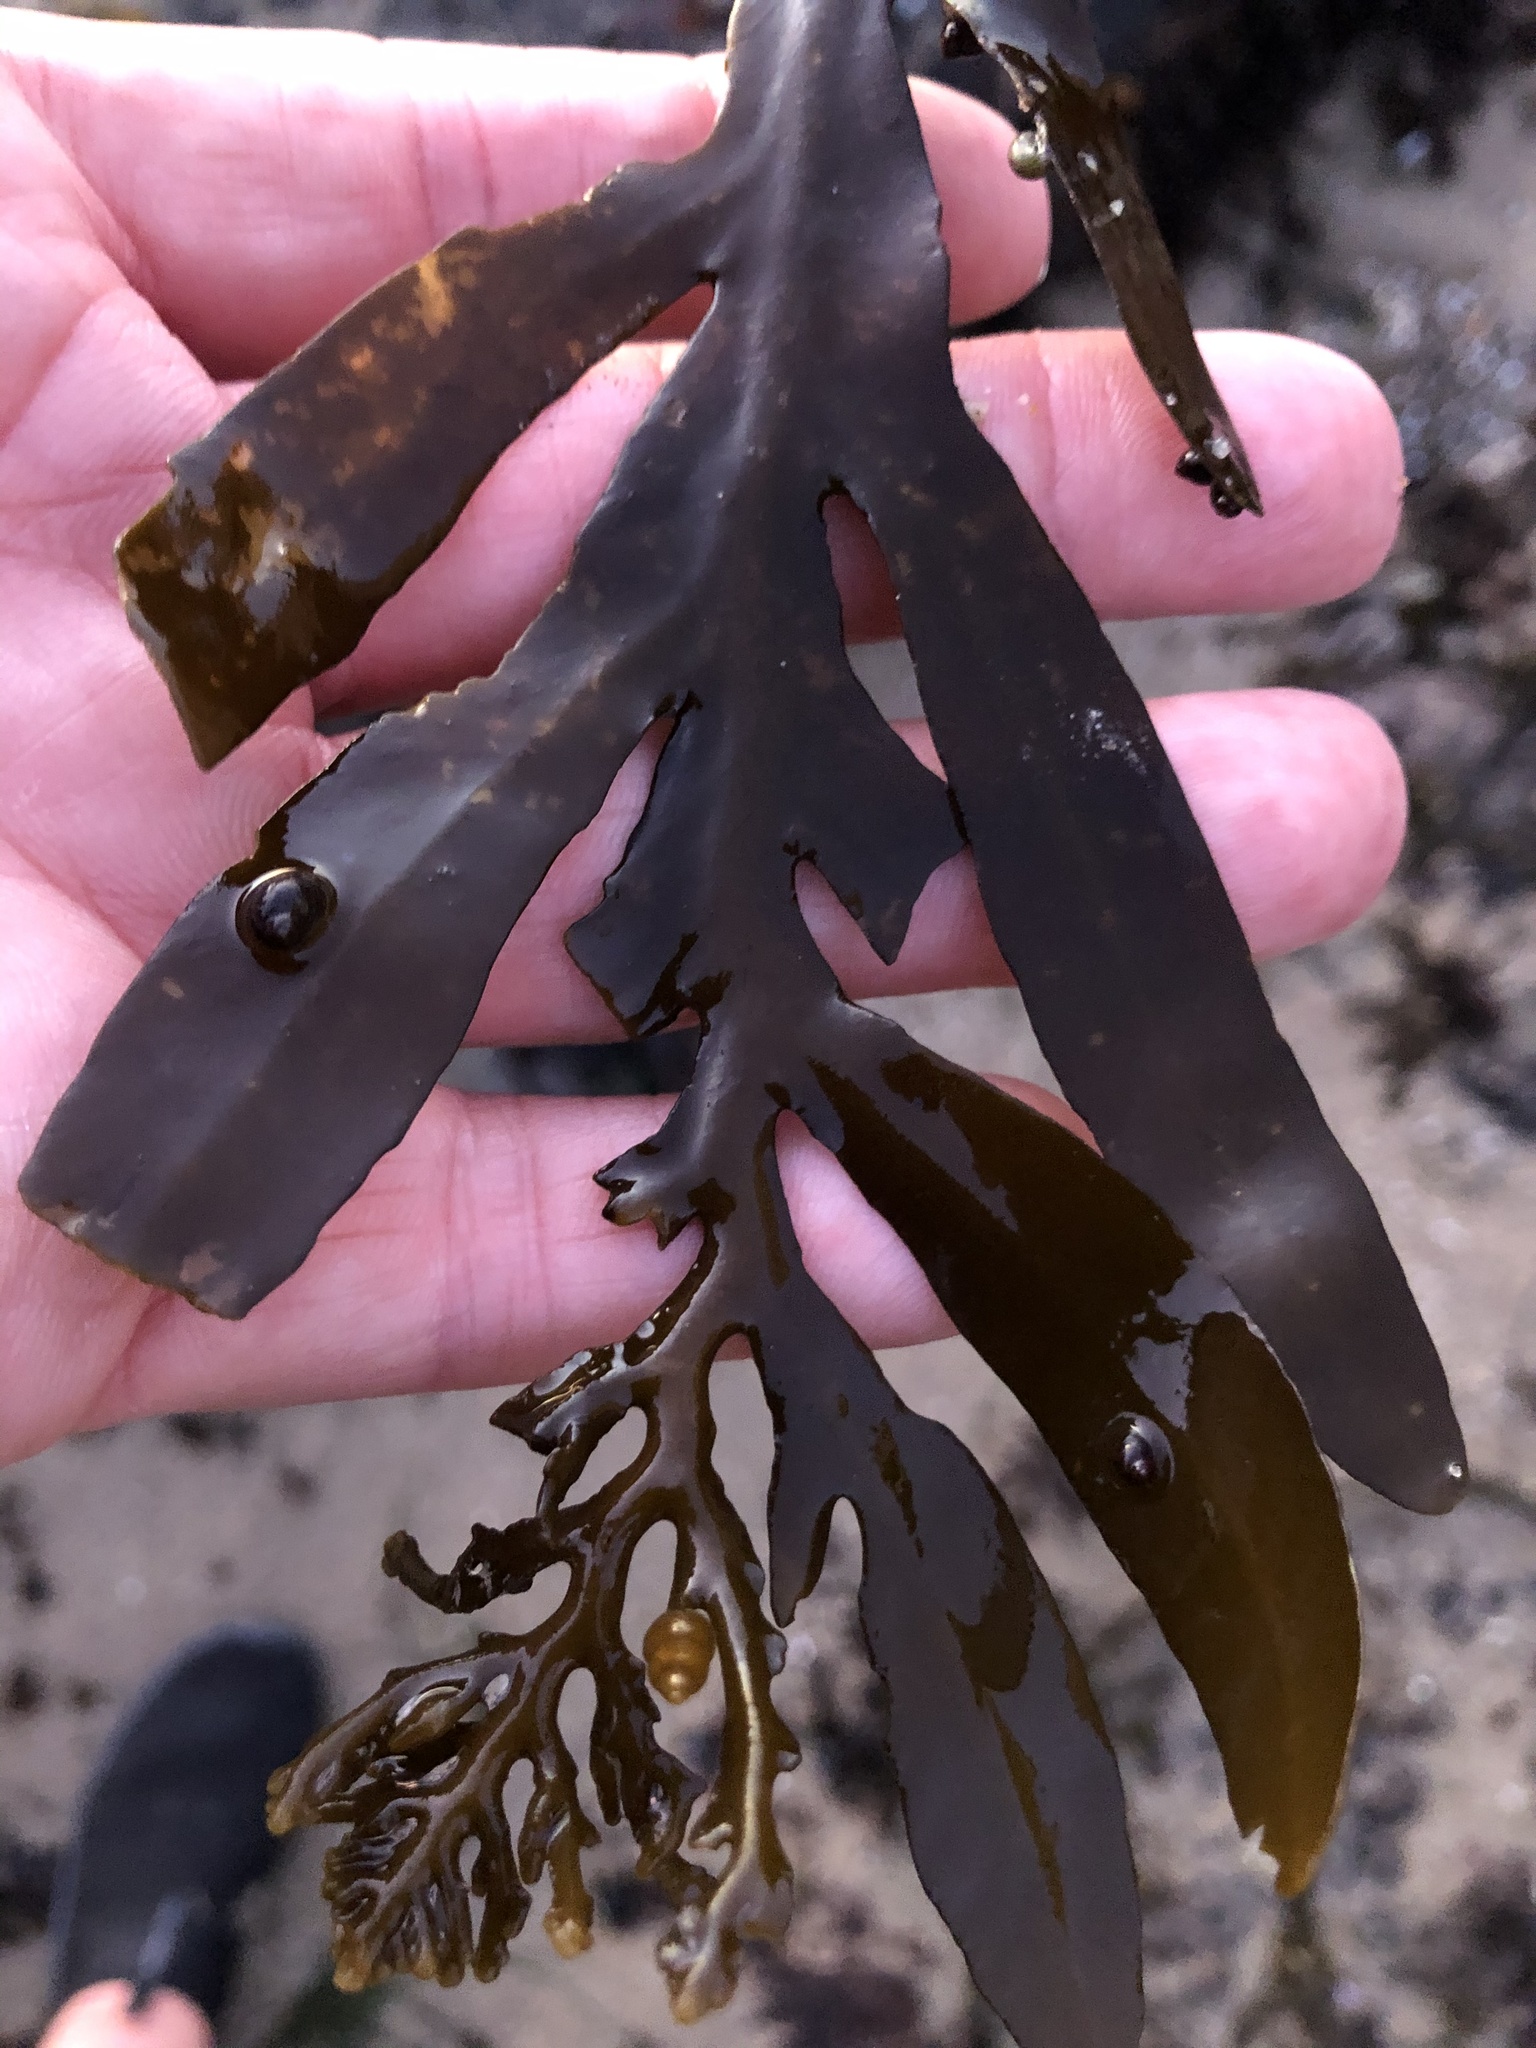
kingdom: Chromista
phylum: Ochrophyta
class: Phaeophyceae
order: Fucales
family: Sargassaceae
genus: Stephanocystis
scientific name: Stephanocystis
